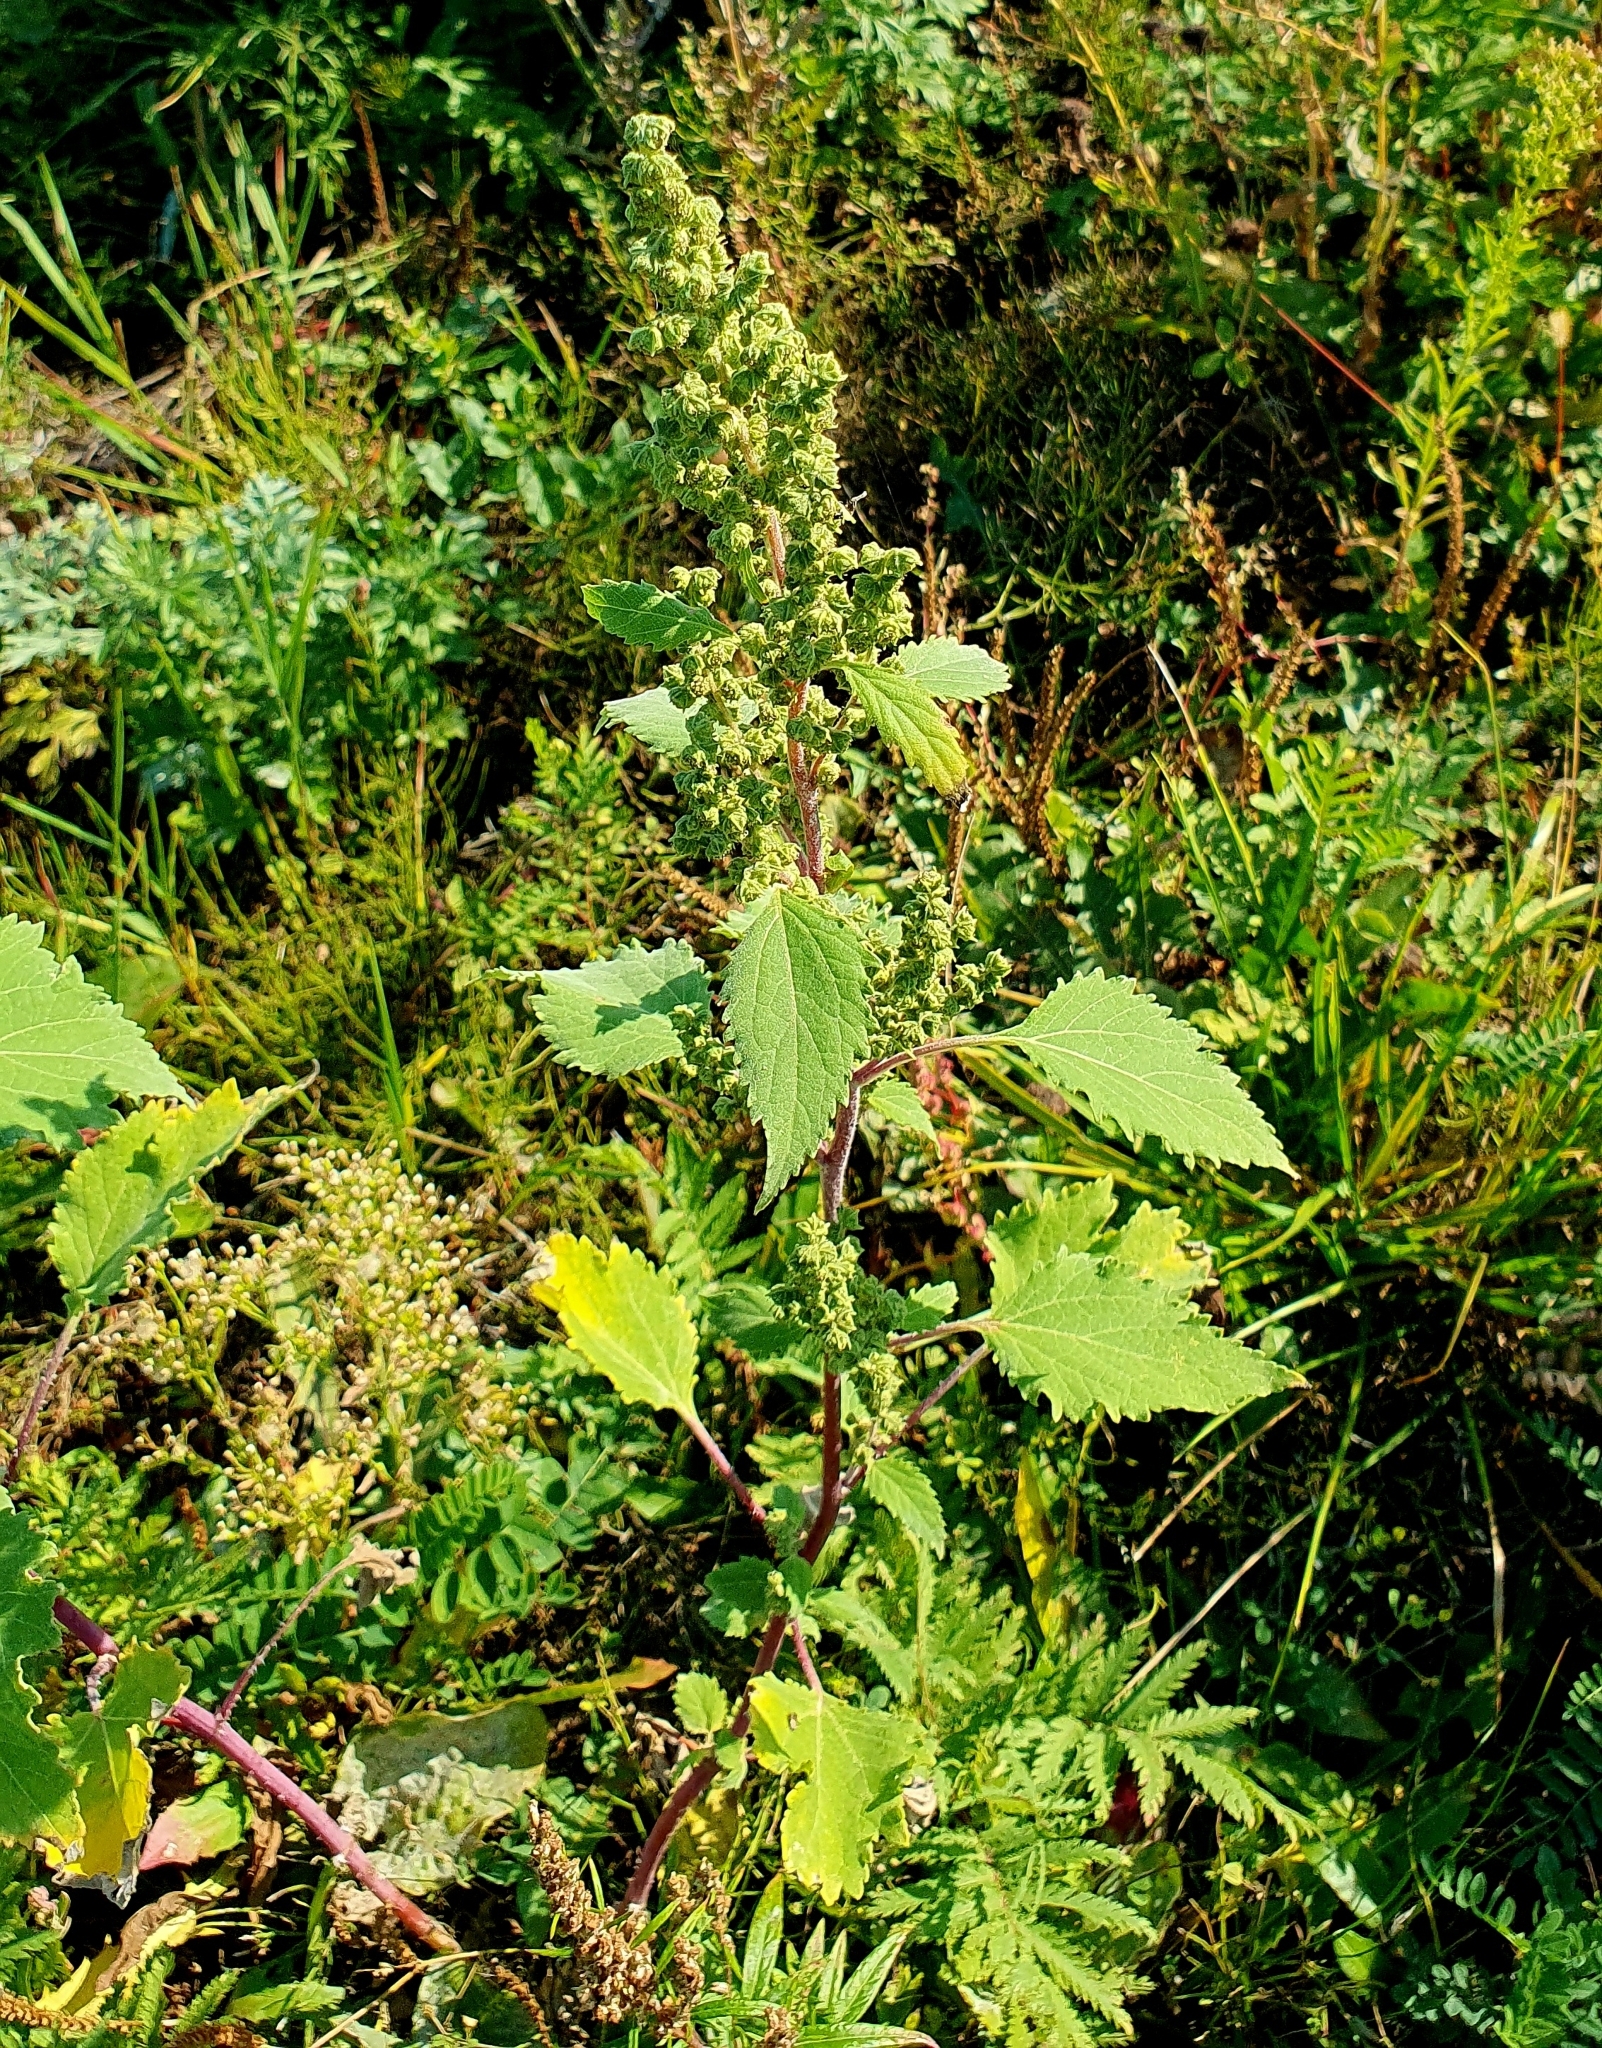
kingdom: Plantae
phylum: Tracheophyta
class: Magnoliopsida
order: Asterales
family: Asteraceae
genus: Cyclachaena
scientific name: Cyclachaena xanthiifolia
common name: Giant sumpweed
